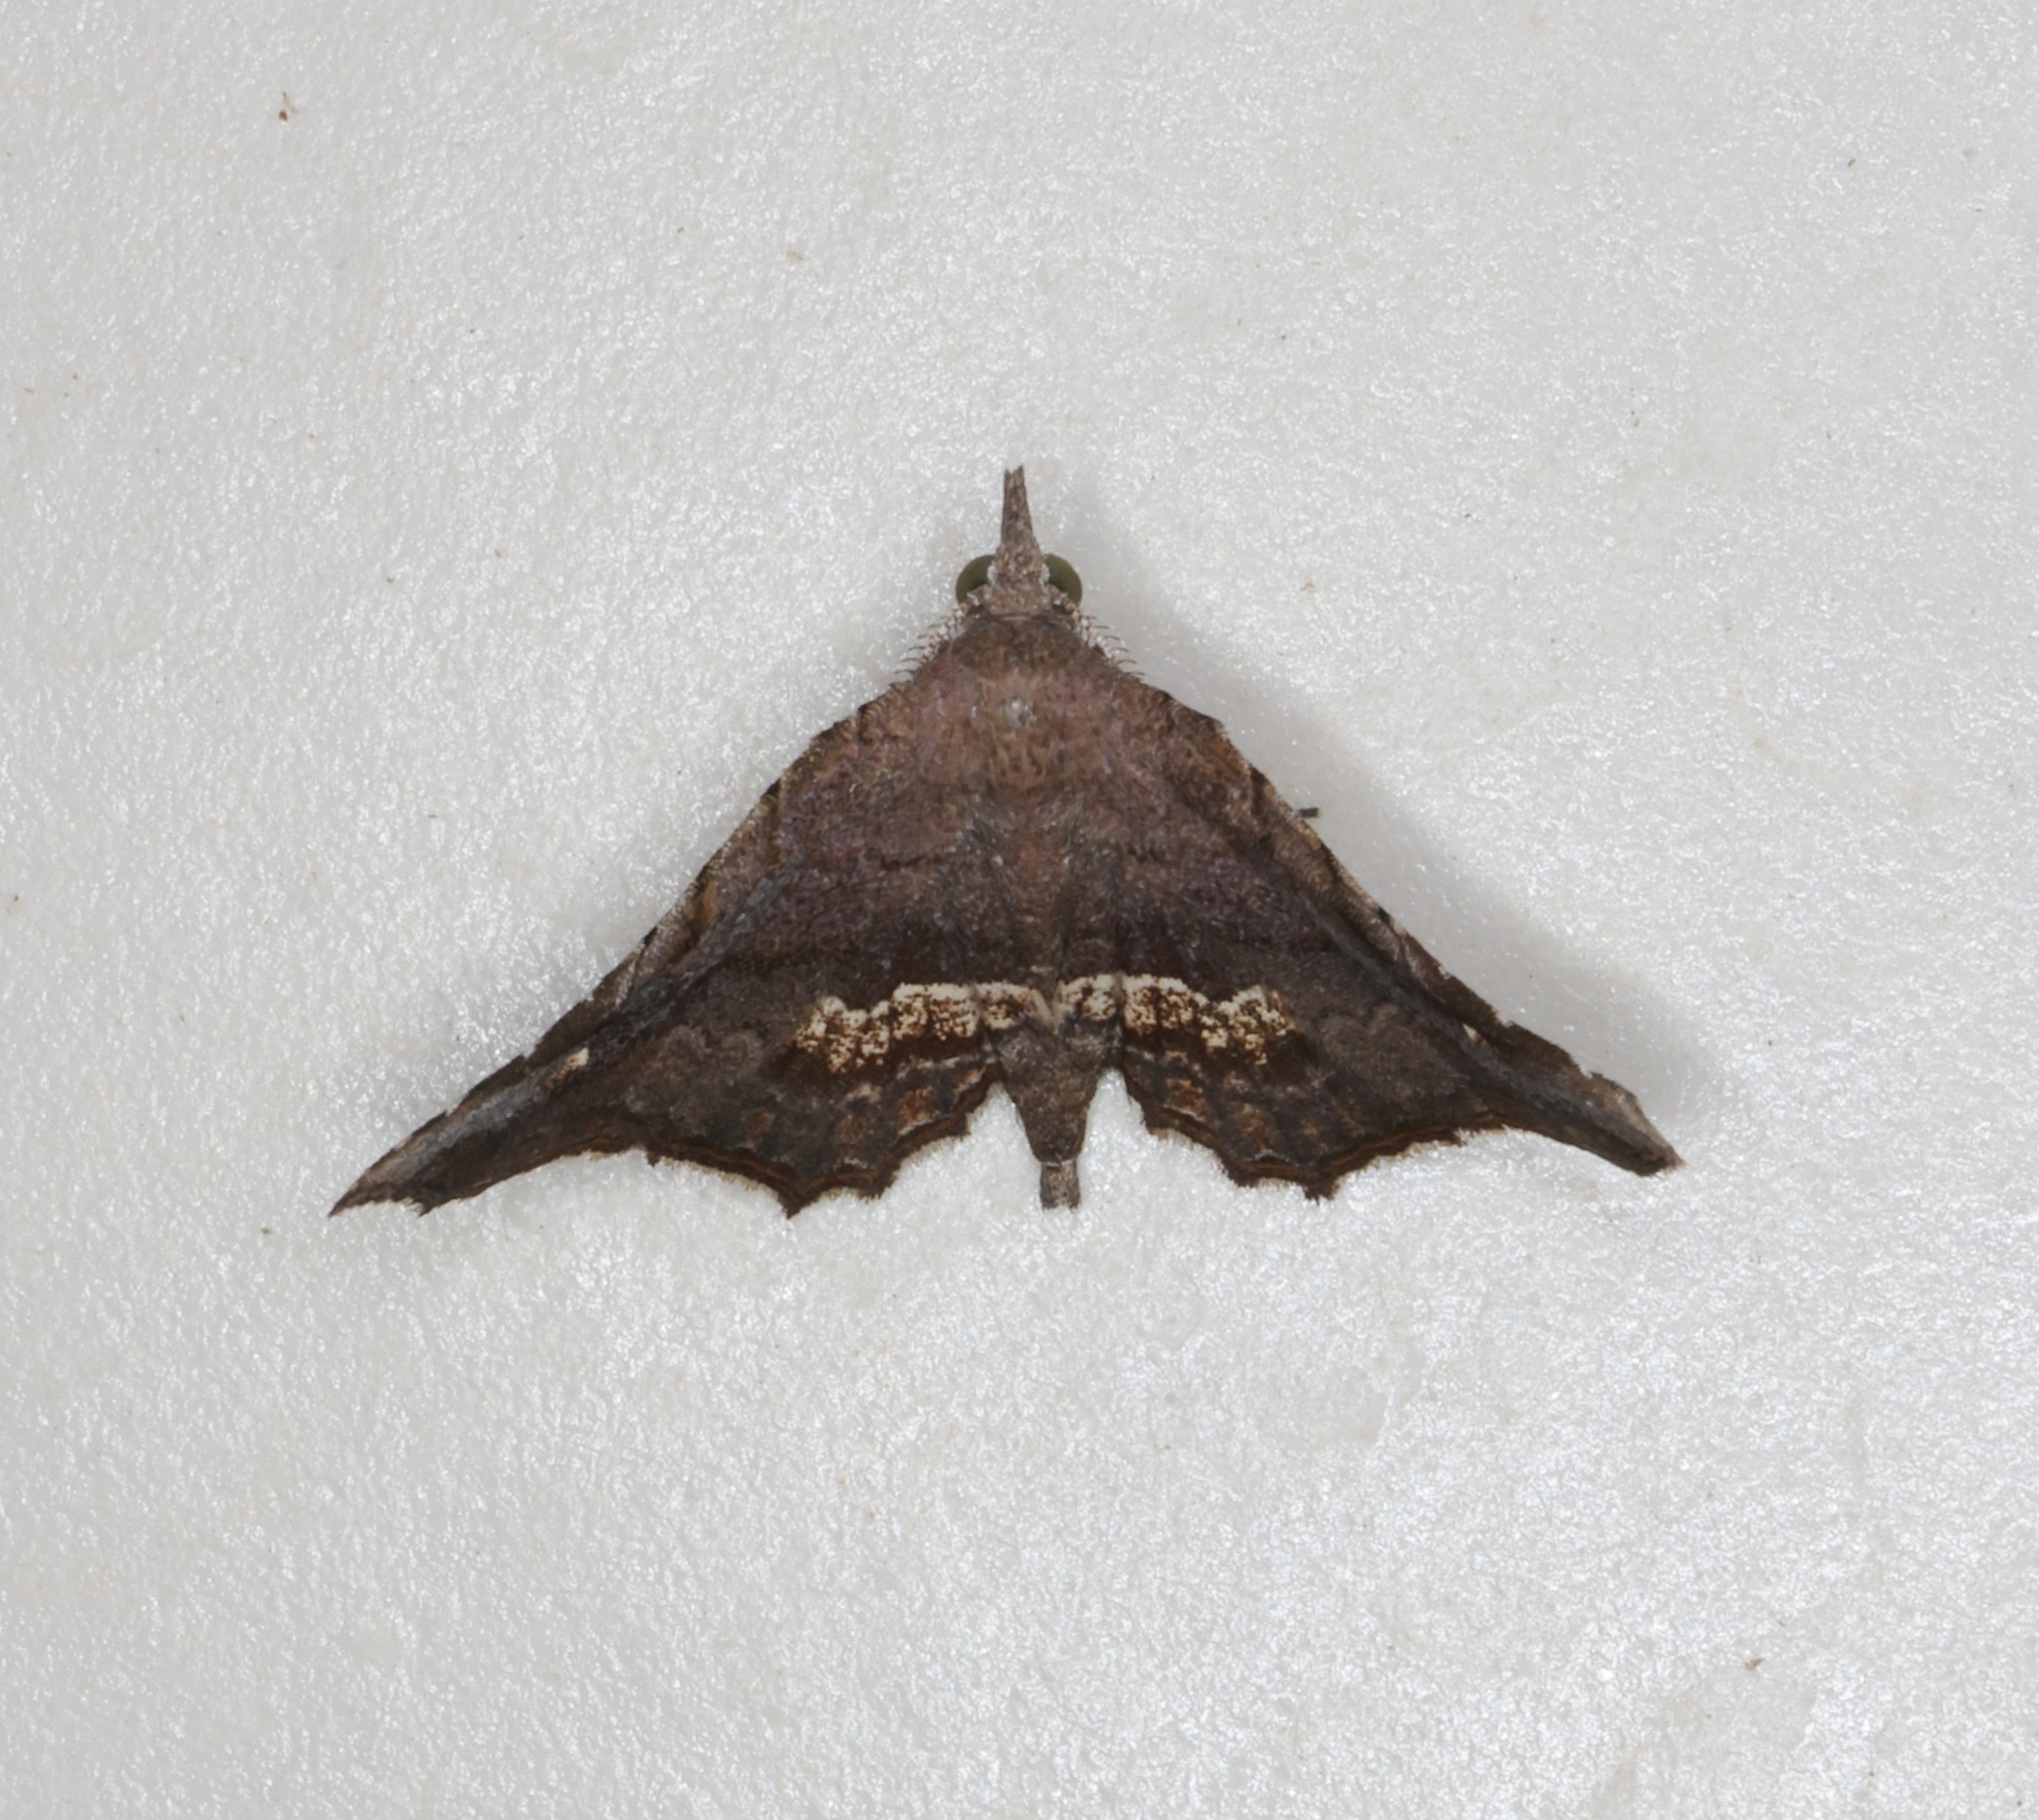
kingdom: Animalia
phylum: Arthropoda
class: Insecta
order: Lepidoptera
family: Erebidae
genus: Throana
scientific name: Throana pectinifer
